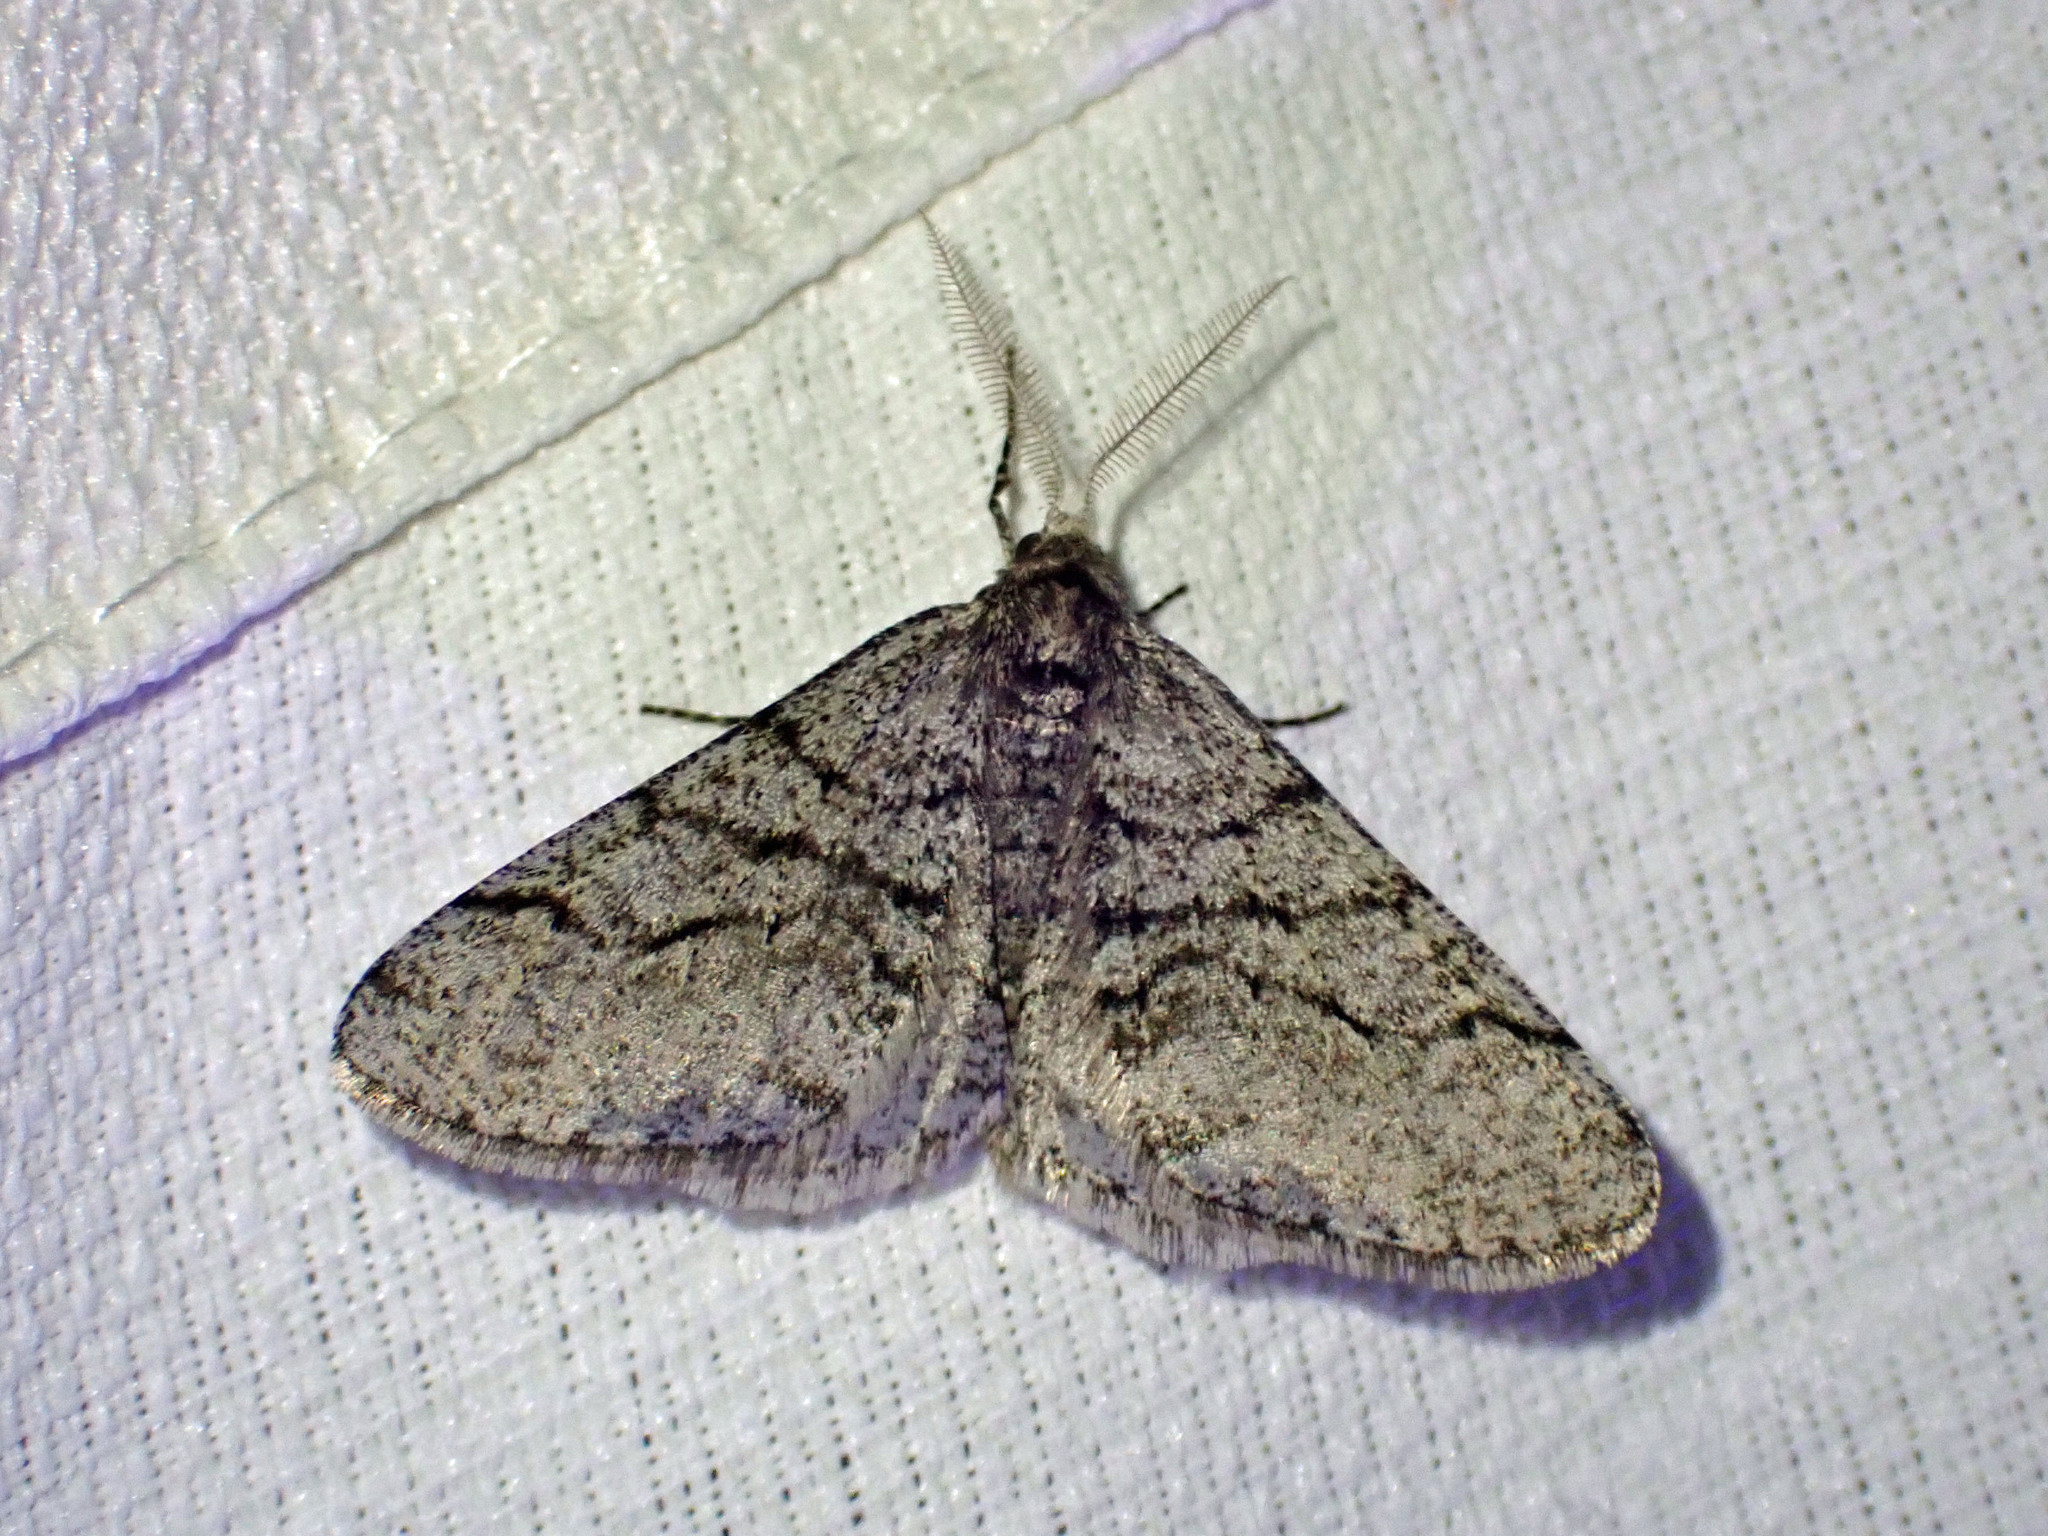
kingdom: Animalia
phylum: Arthropoda
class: Insecta
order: Lepidoptera
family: Geometridae
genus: Phigalia
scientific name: Phigalia titea
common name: Spiny looper
